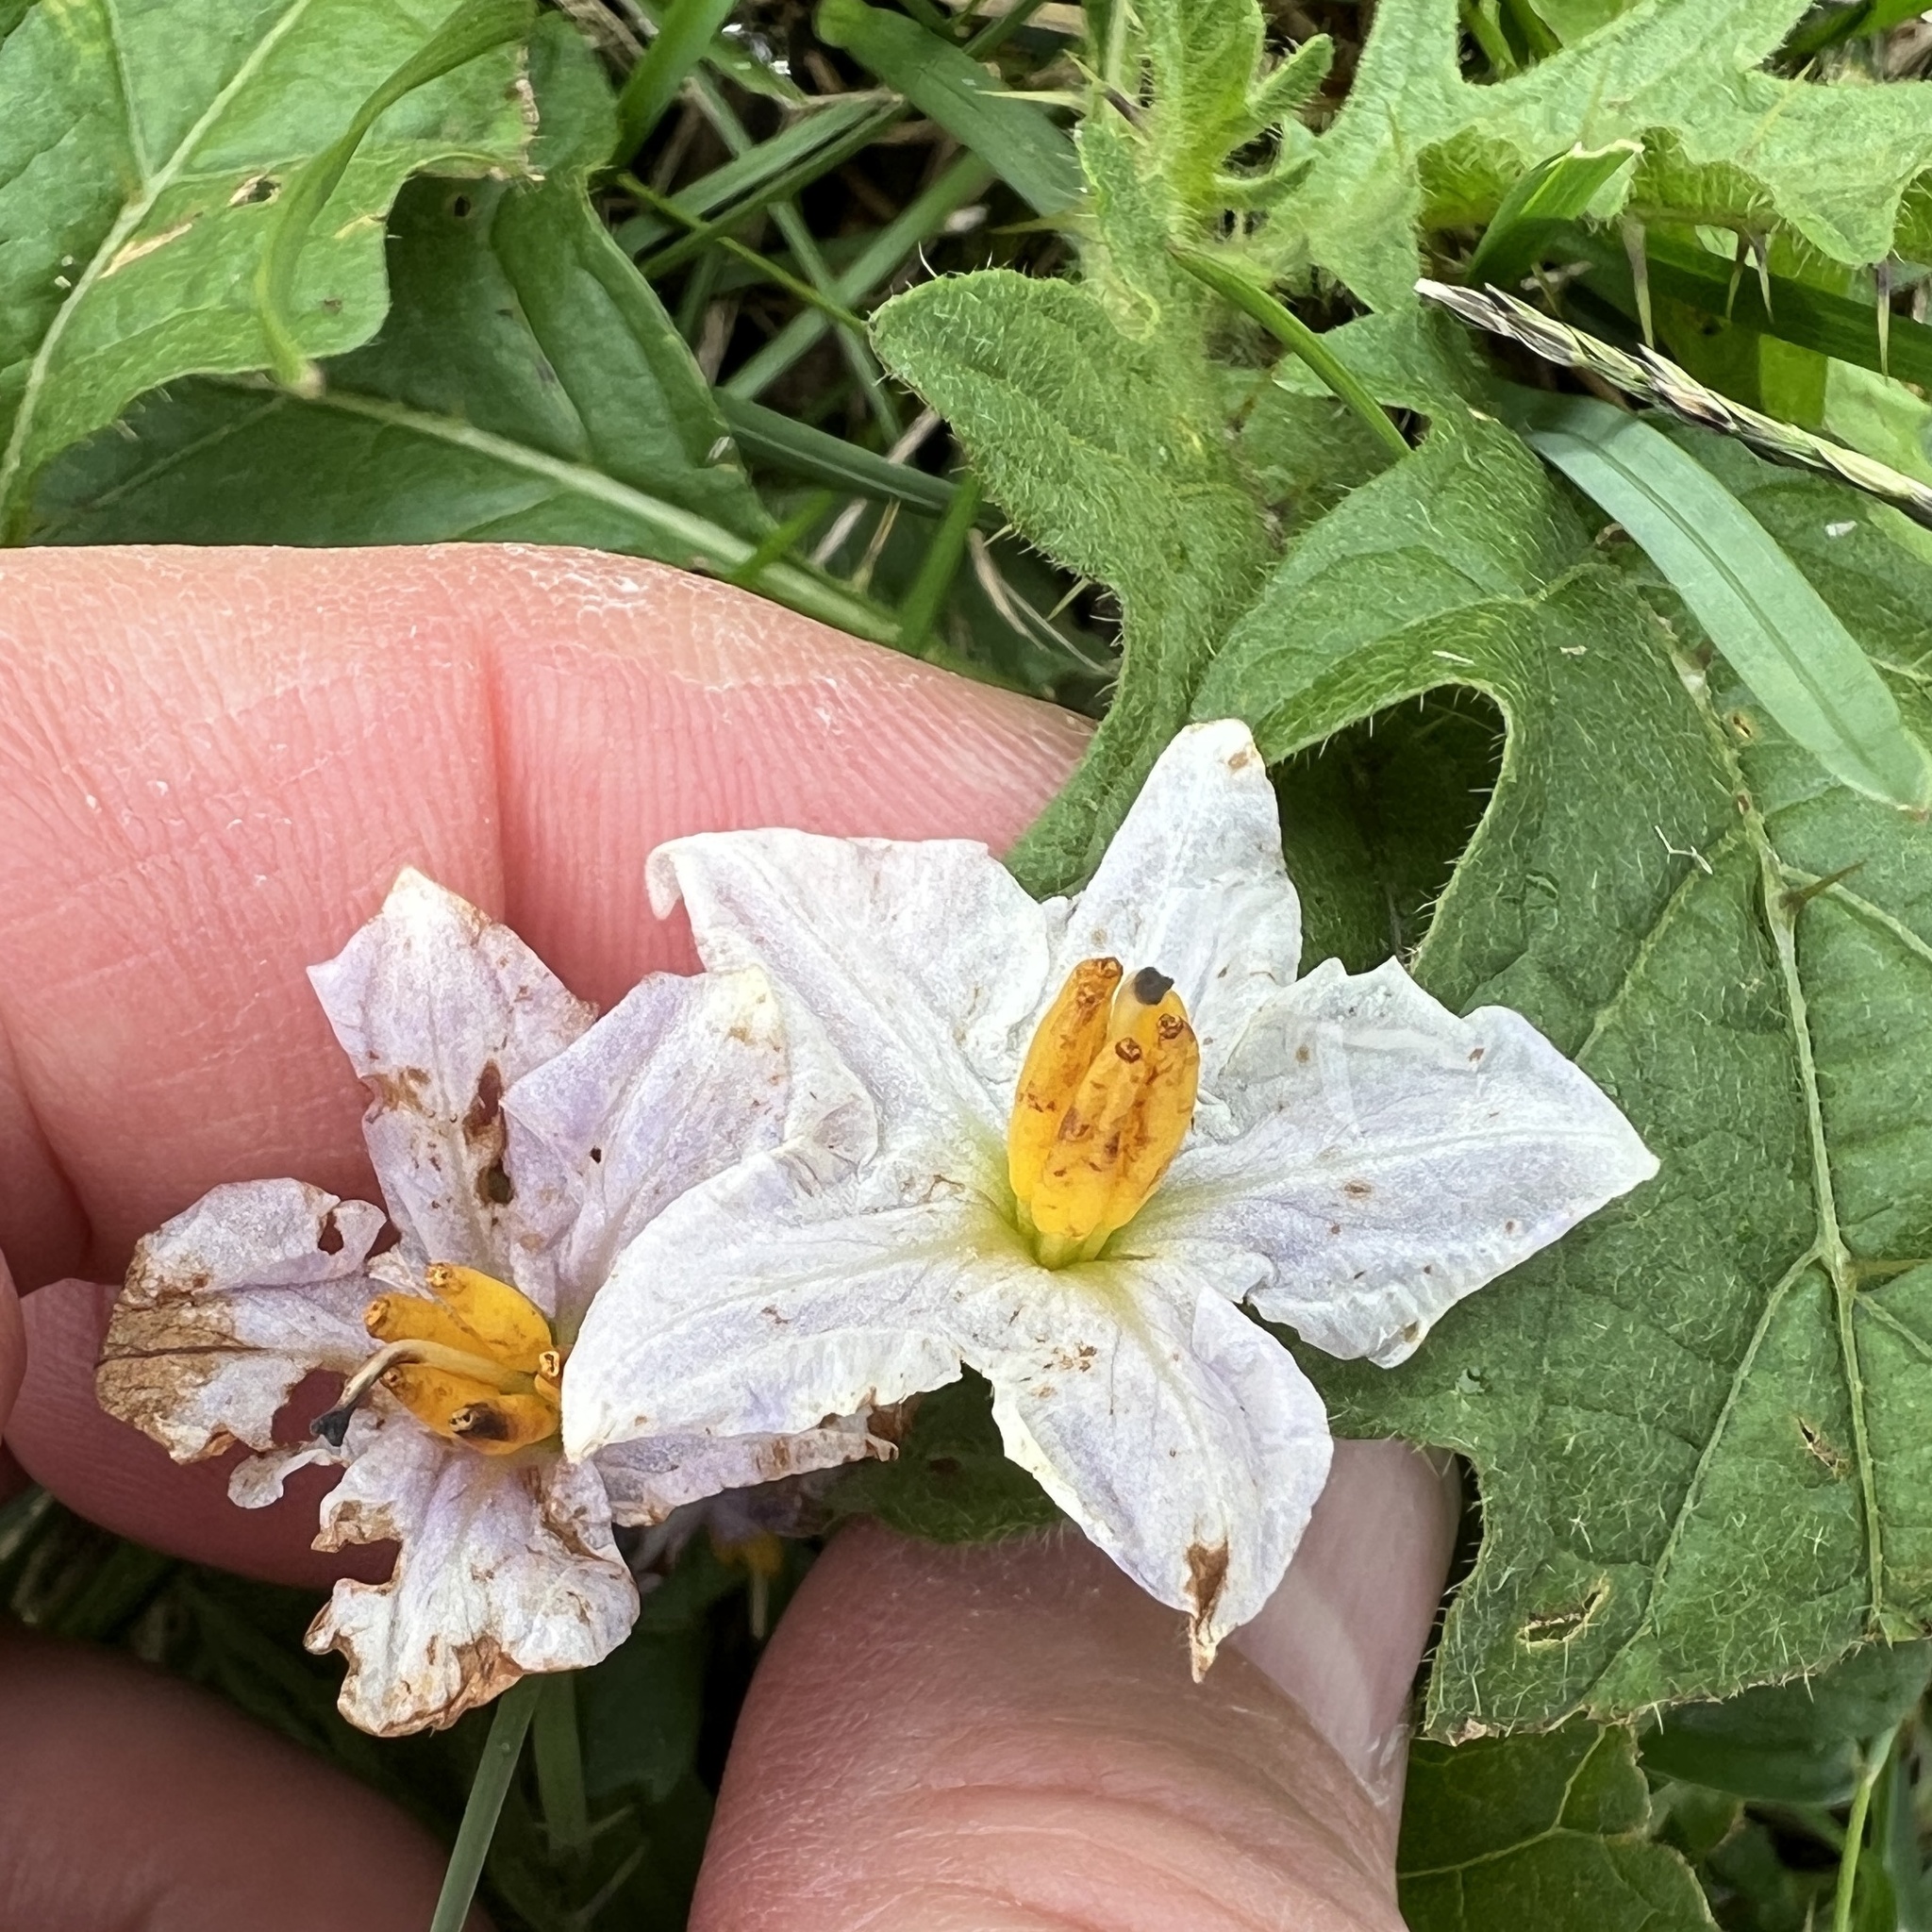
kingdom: Plantae
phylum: Tracheophyta
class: Magnoliopsida
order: Solanales
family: Solanaceae
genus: Solanum
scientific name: Solanum carolinense
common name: Horse-nettle
